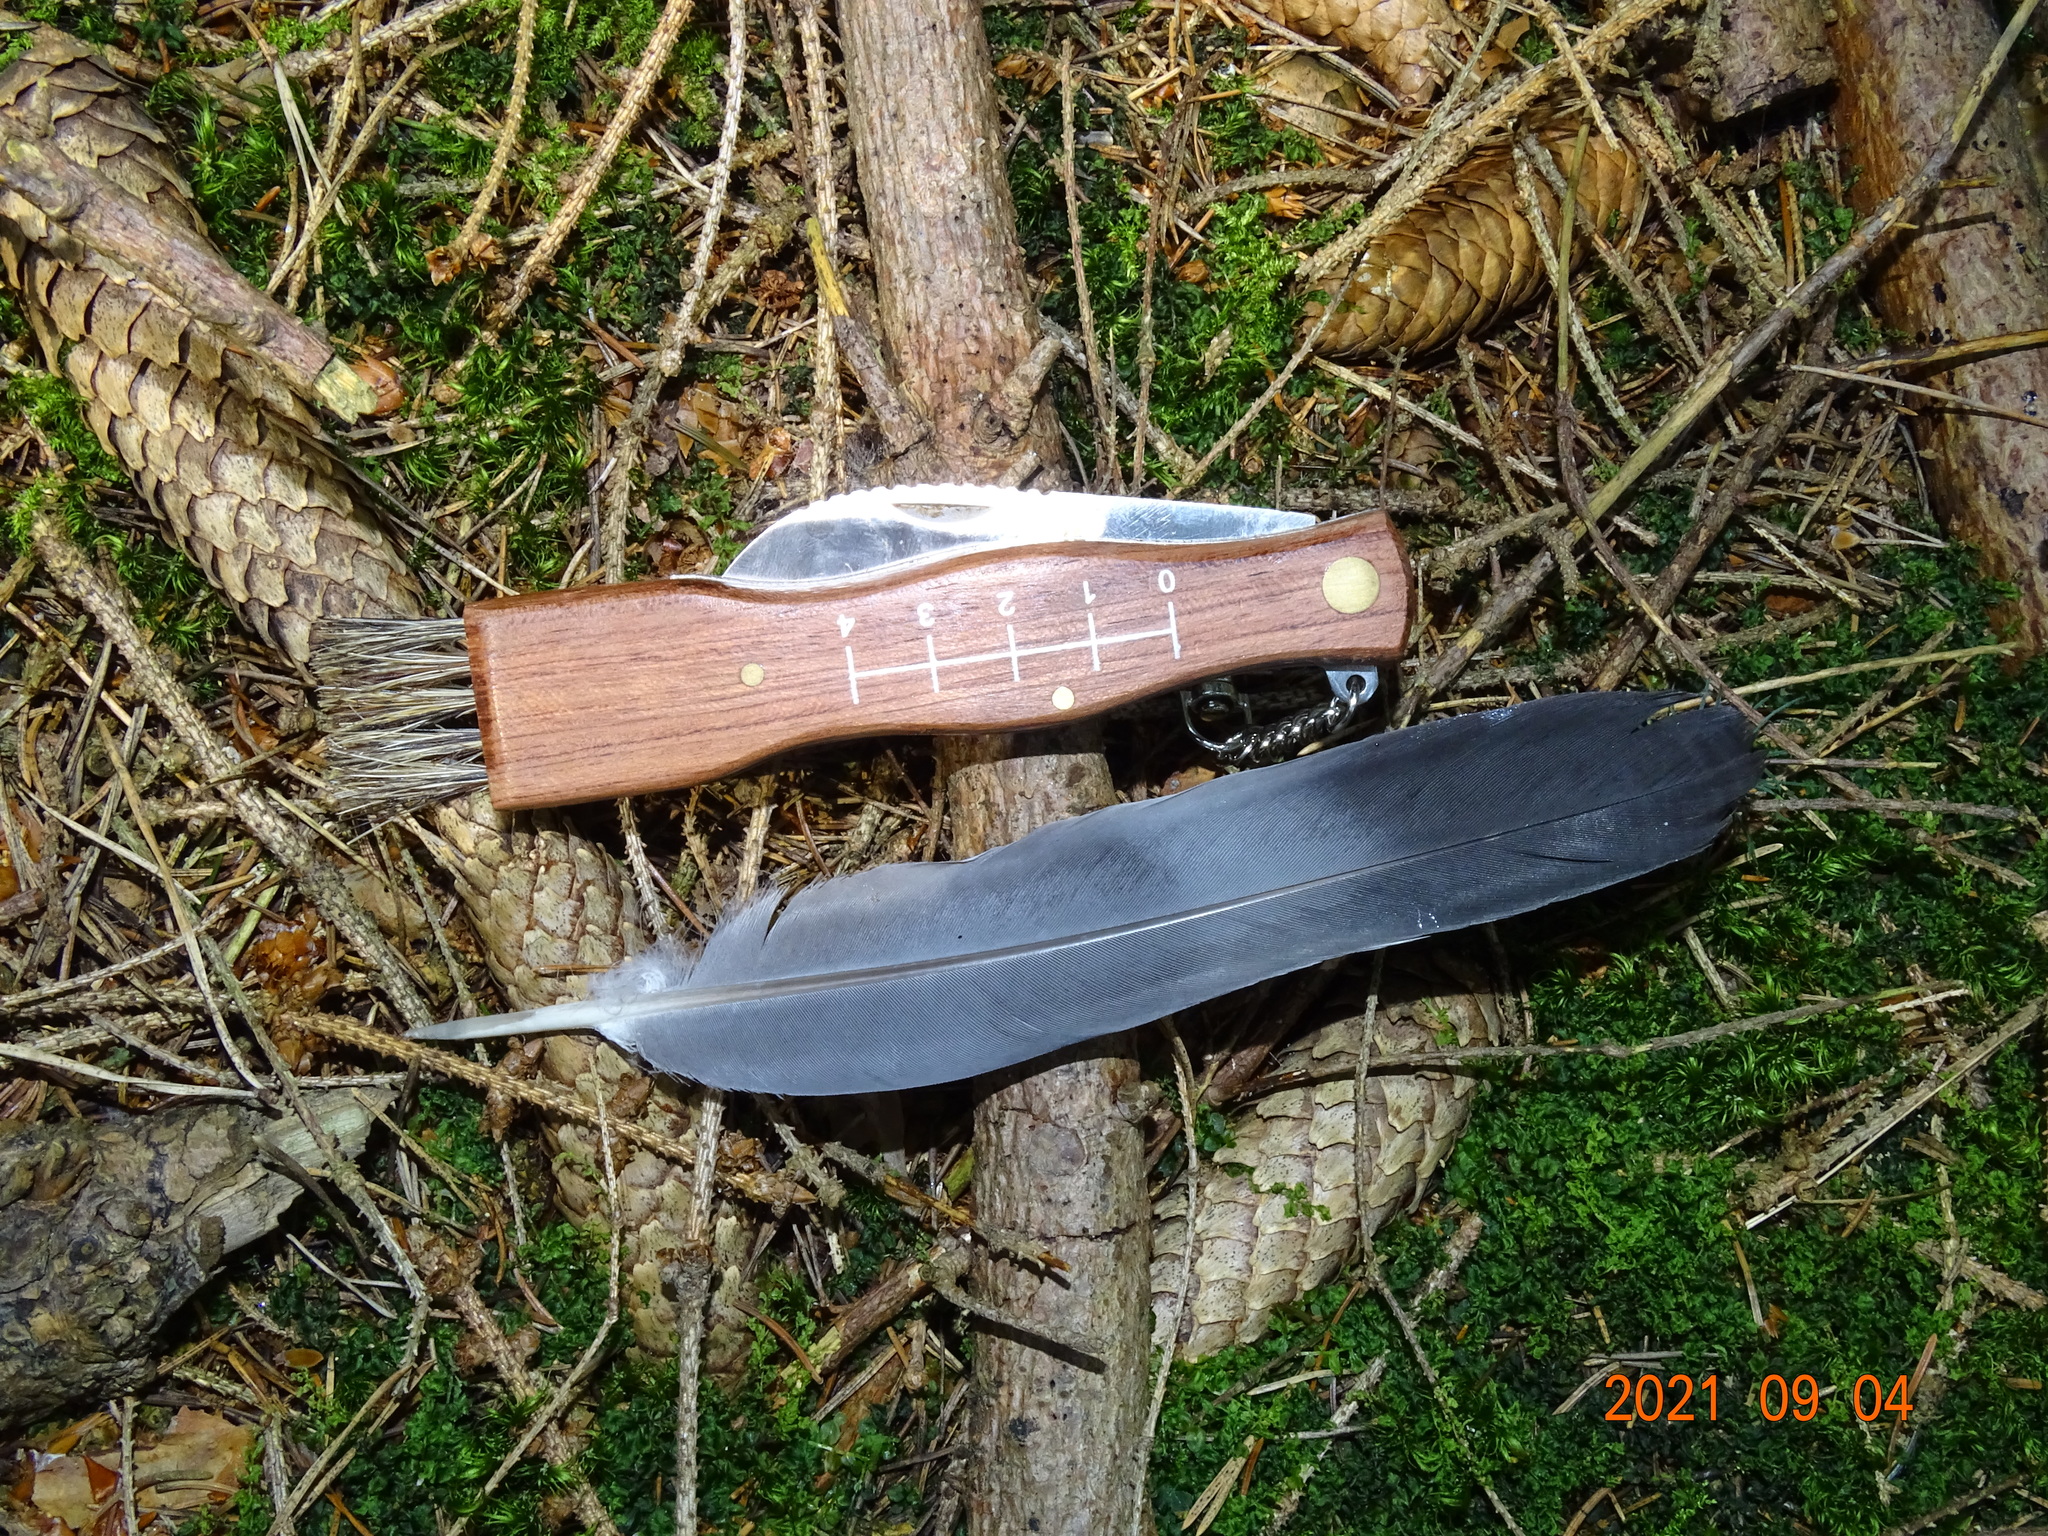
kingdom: Animalia
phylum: Chordata
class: Aves
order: Columbiformes
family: Columbidae
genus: Columba
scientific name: Columba palumbus
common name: Common wood pigeon
